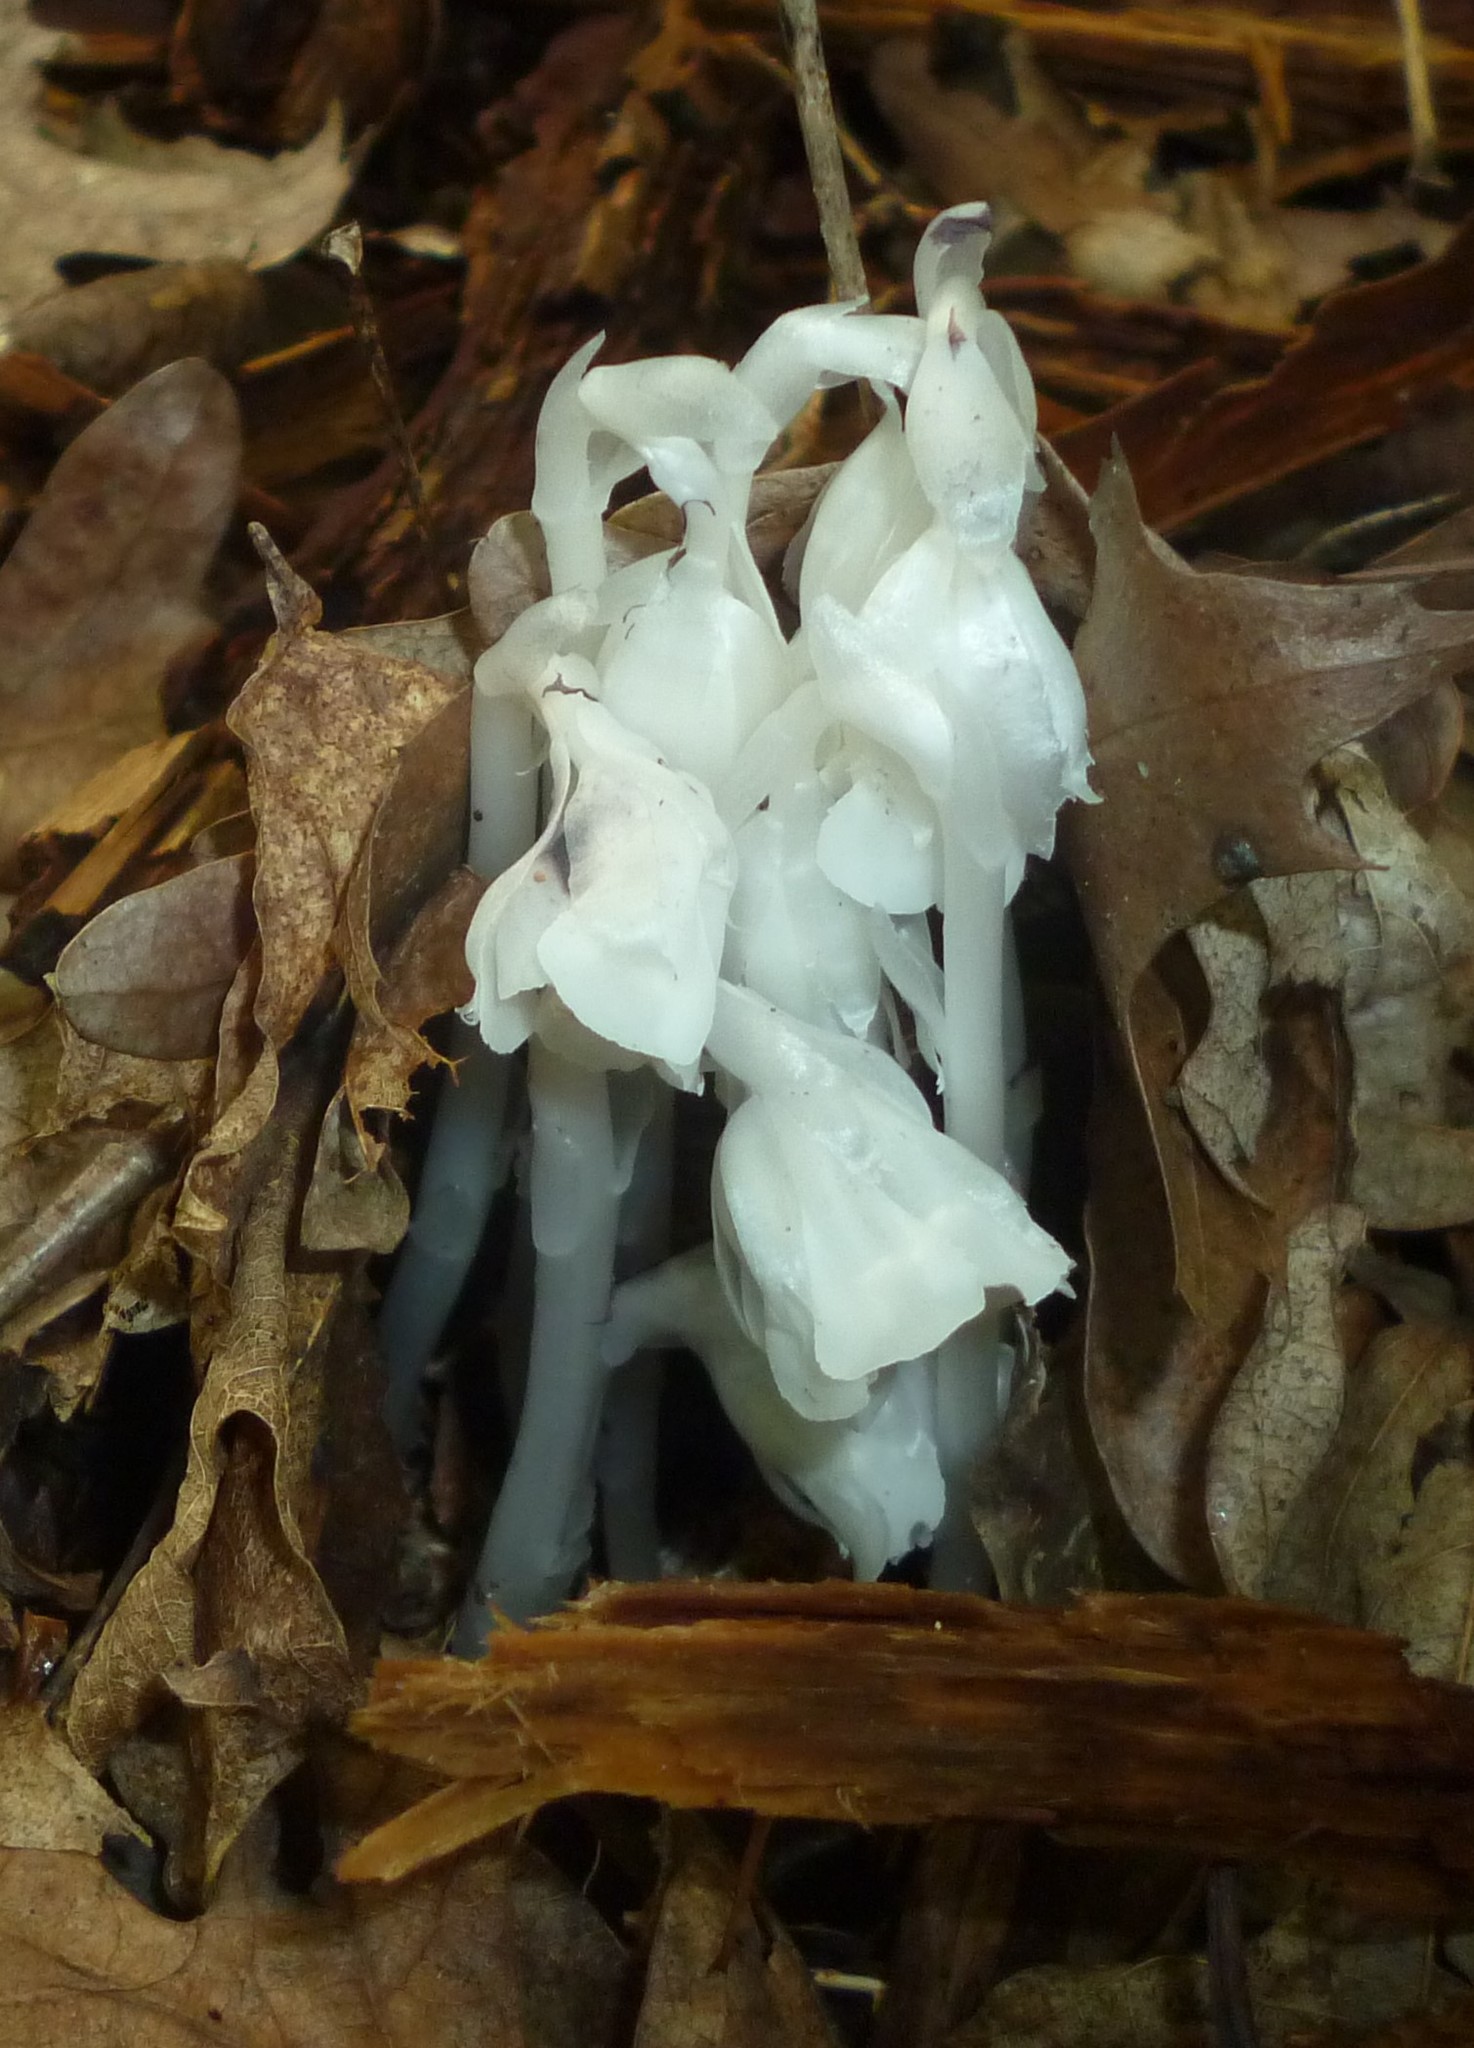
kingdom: Plantae
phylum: Tracheophyta
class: Magnoliopsida
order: Ericales
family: Ericaceae
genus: Monotropa
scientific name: Monotropa uniflora
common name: Convulsion root
